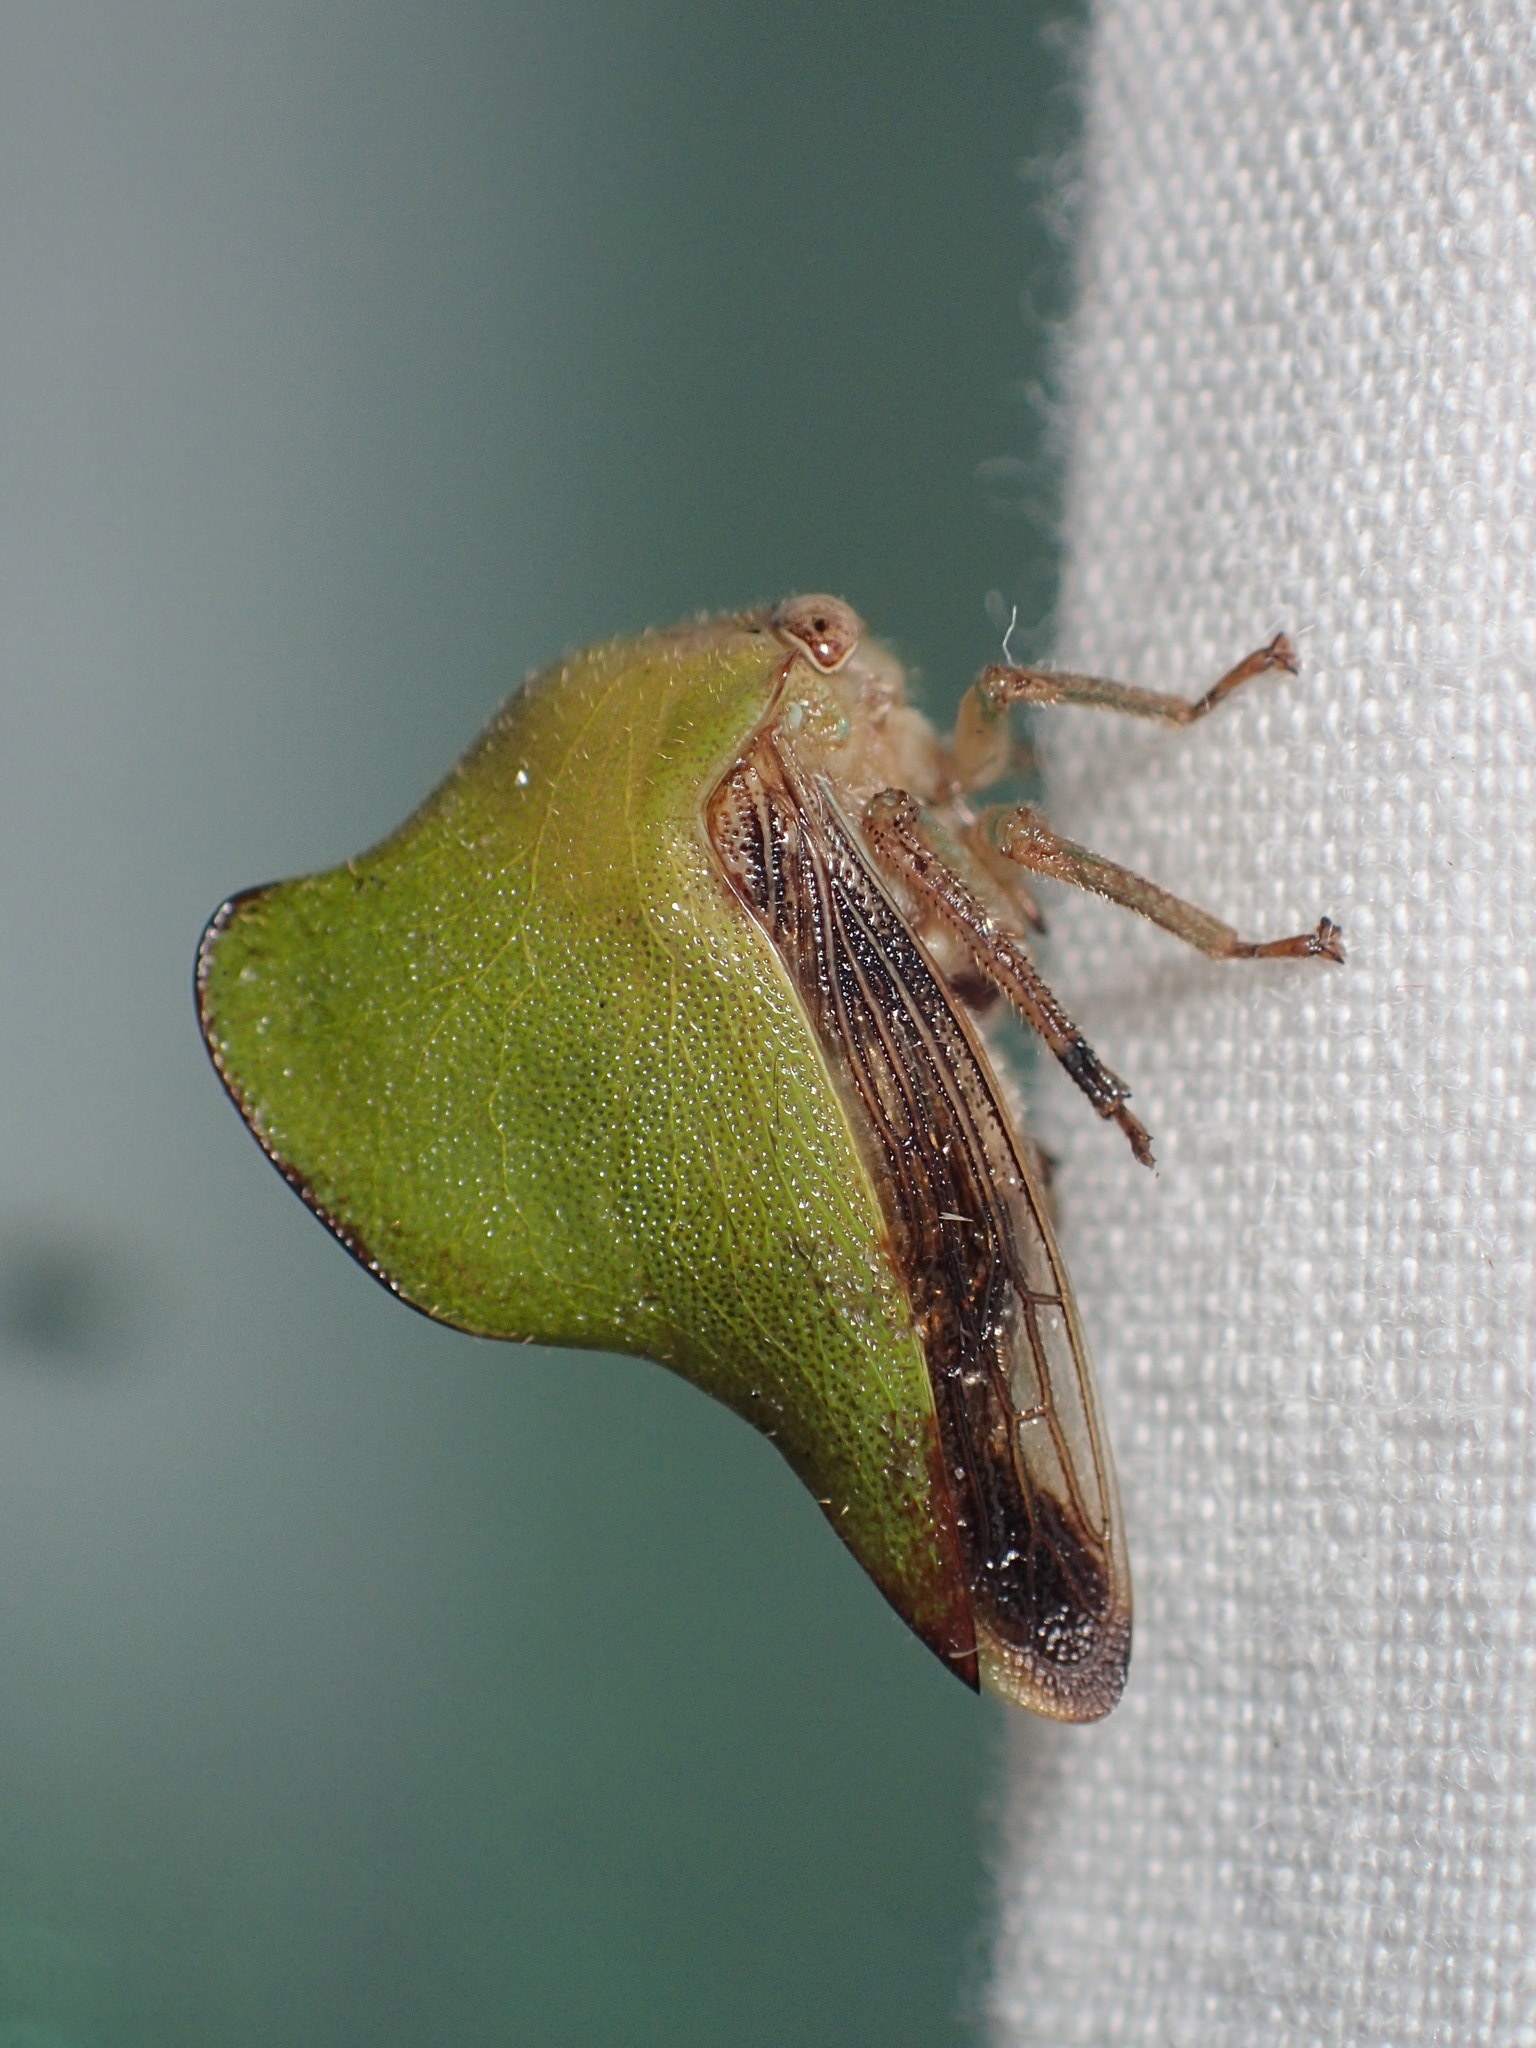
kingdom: Animalia
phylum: Arthropoda
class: Insecta
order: Hemiptera
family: Membracidae
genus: Helonica
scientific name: Helonica excelsa
